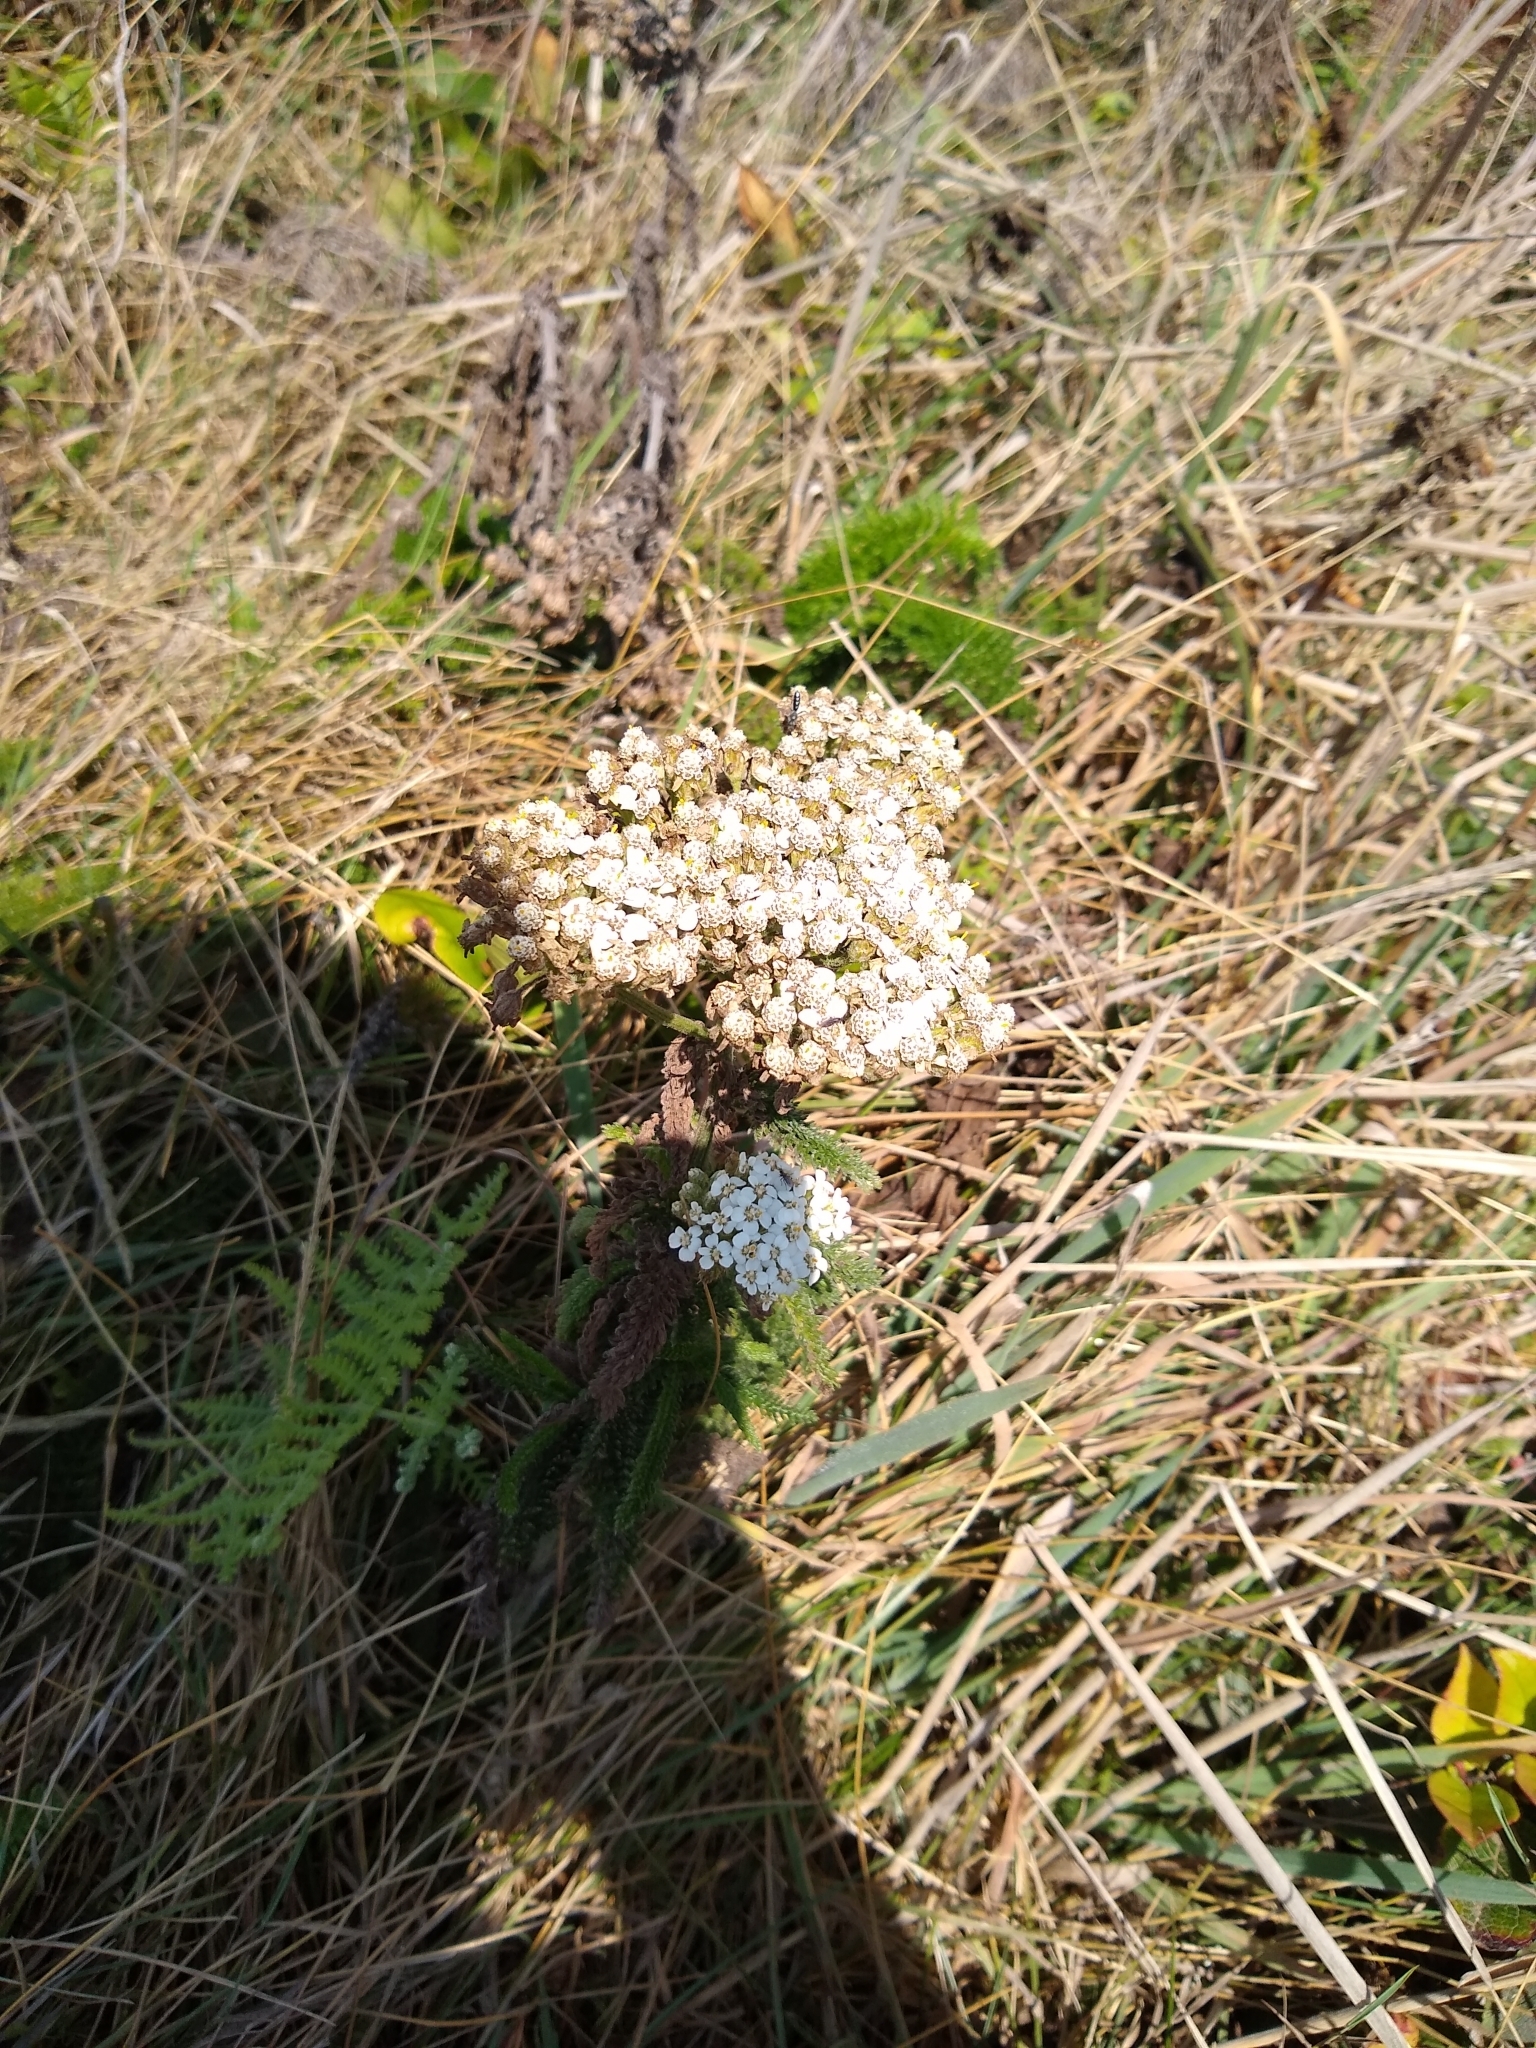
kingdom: Plantae
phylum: Tracheophyta
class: Magnoliopsida
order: Asterales
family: Asteraceae
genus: Achillea
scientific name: Achillea millefolium
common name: Yarrow
